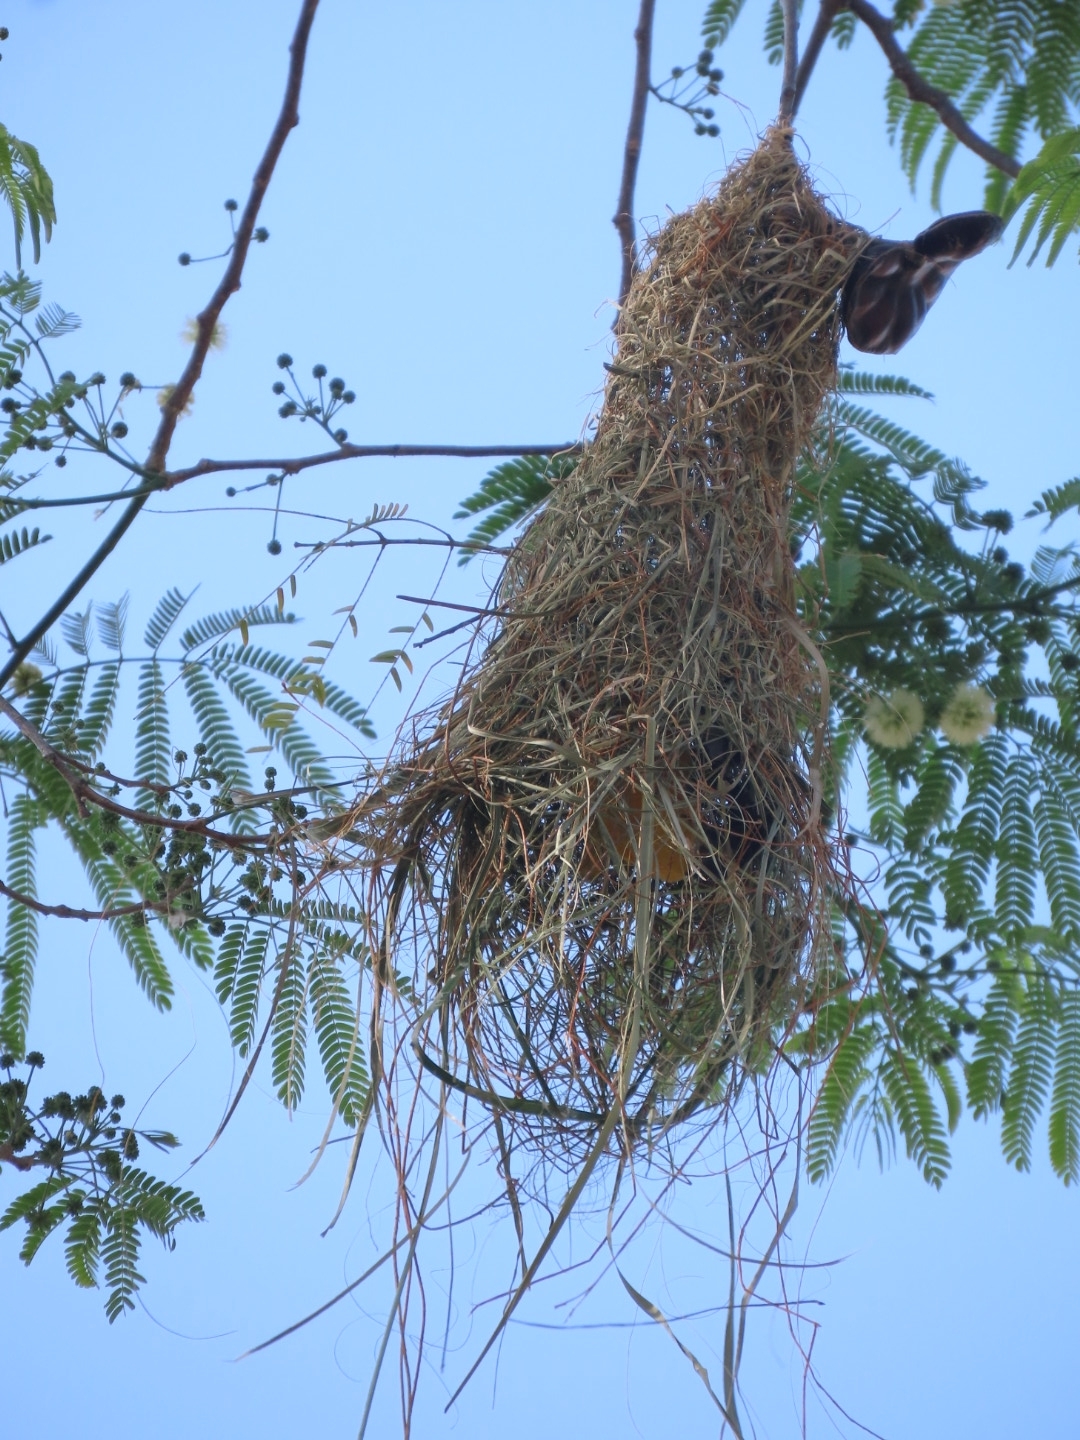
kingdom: Animalia
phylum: Chordata
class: Aves
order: Passeriformes
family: Icteridae
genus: Icterus
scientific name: Icterus gularis
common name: Altamira oriole
